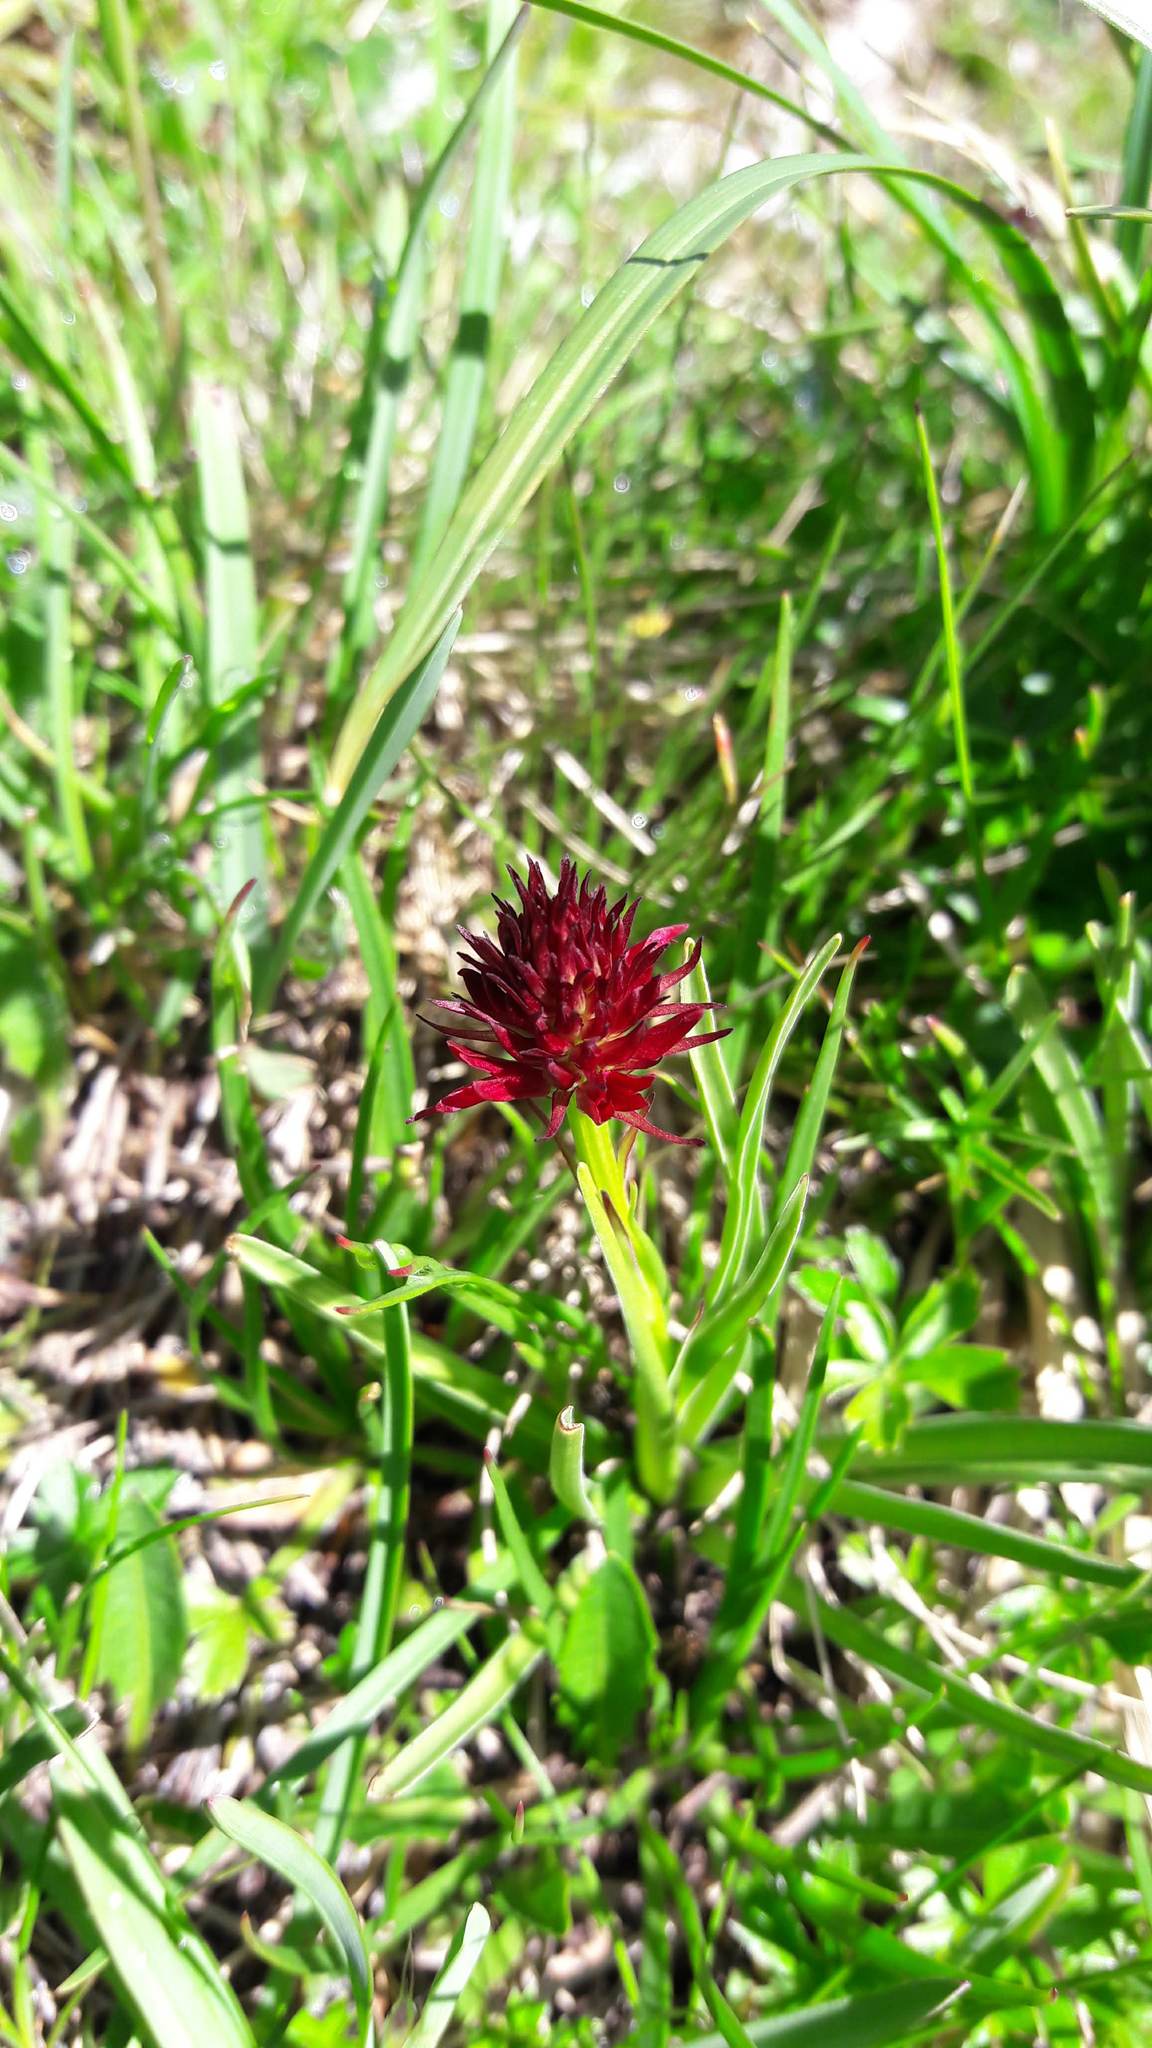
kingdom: Plantae
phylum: Tracheophyta
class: Liliopsida
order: Asparagales
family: Orchidaceae
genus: Gymnadenia
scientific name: Gymnadenia austriaca
